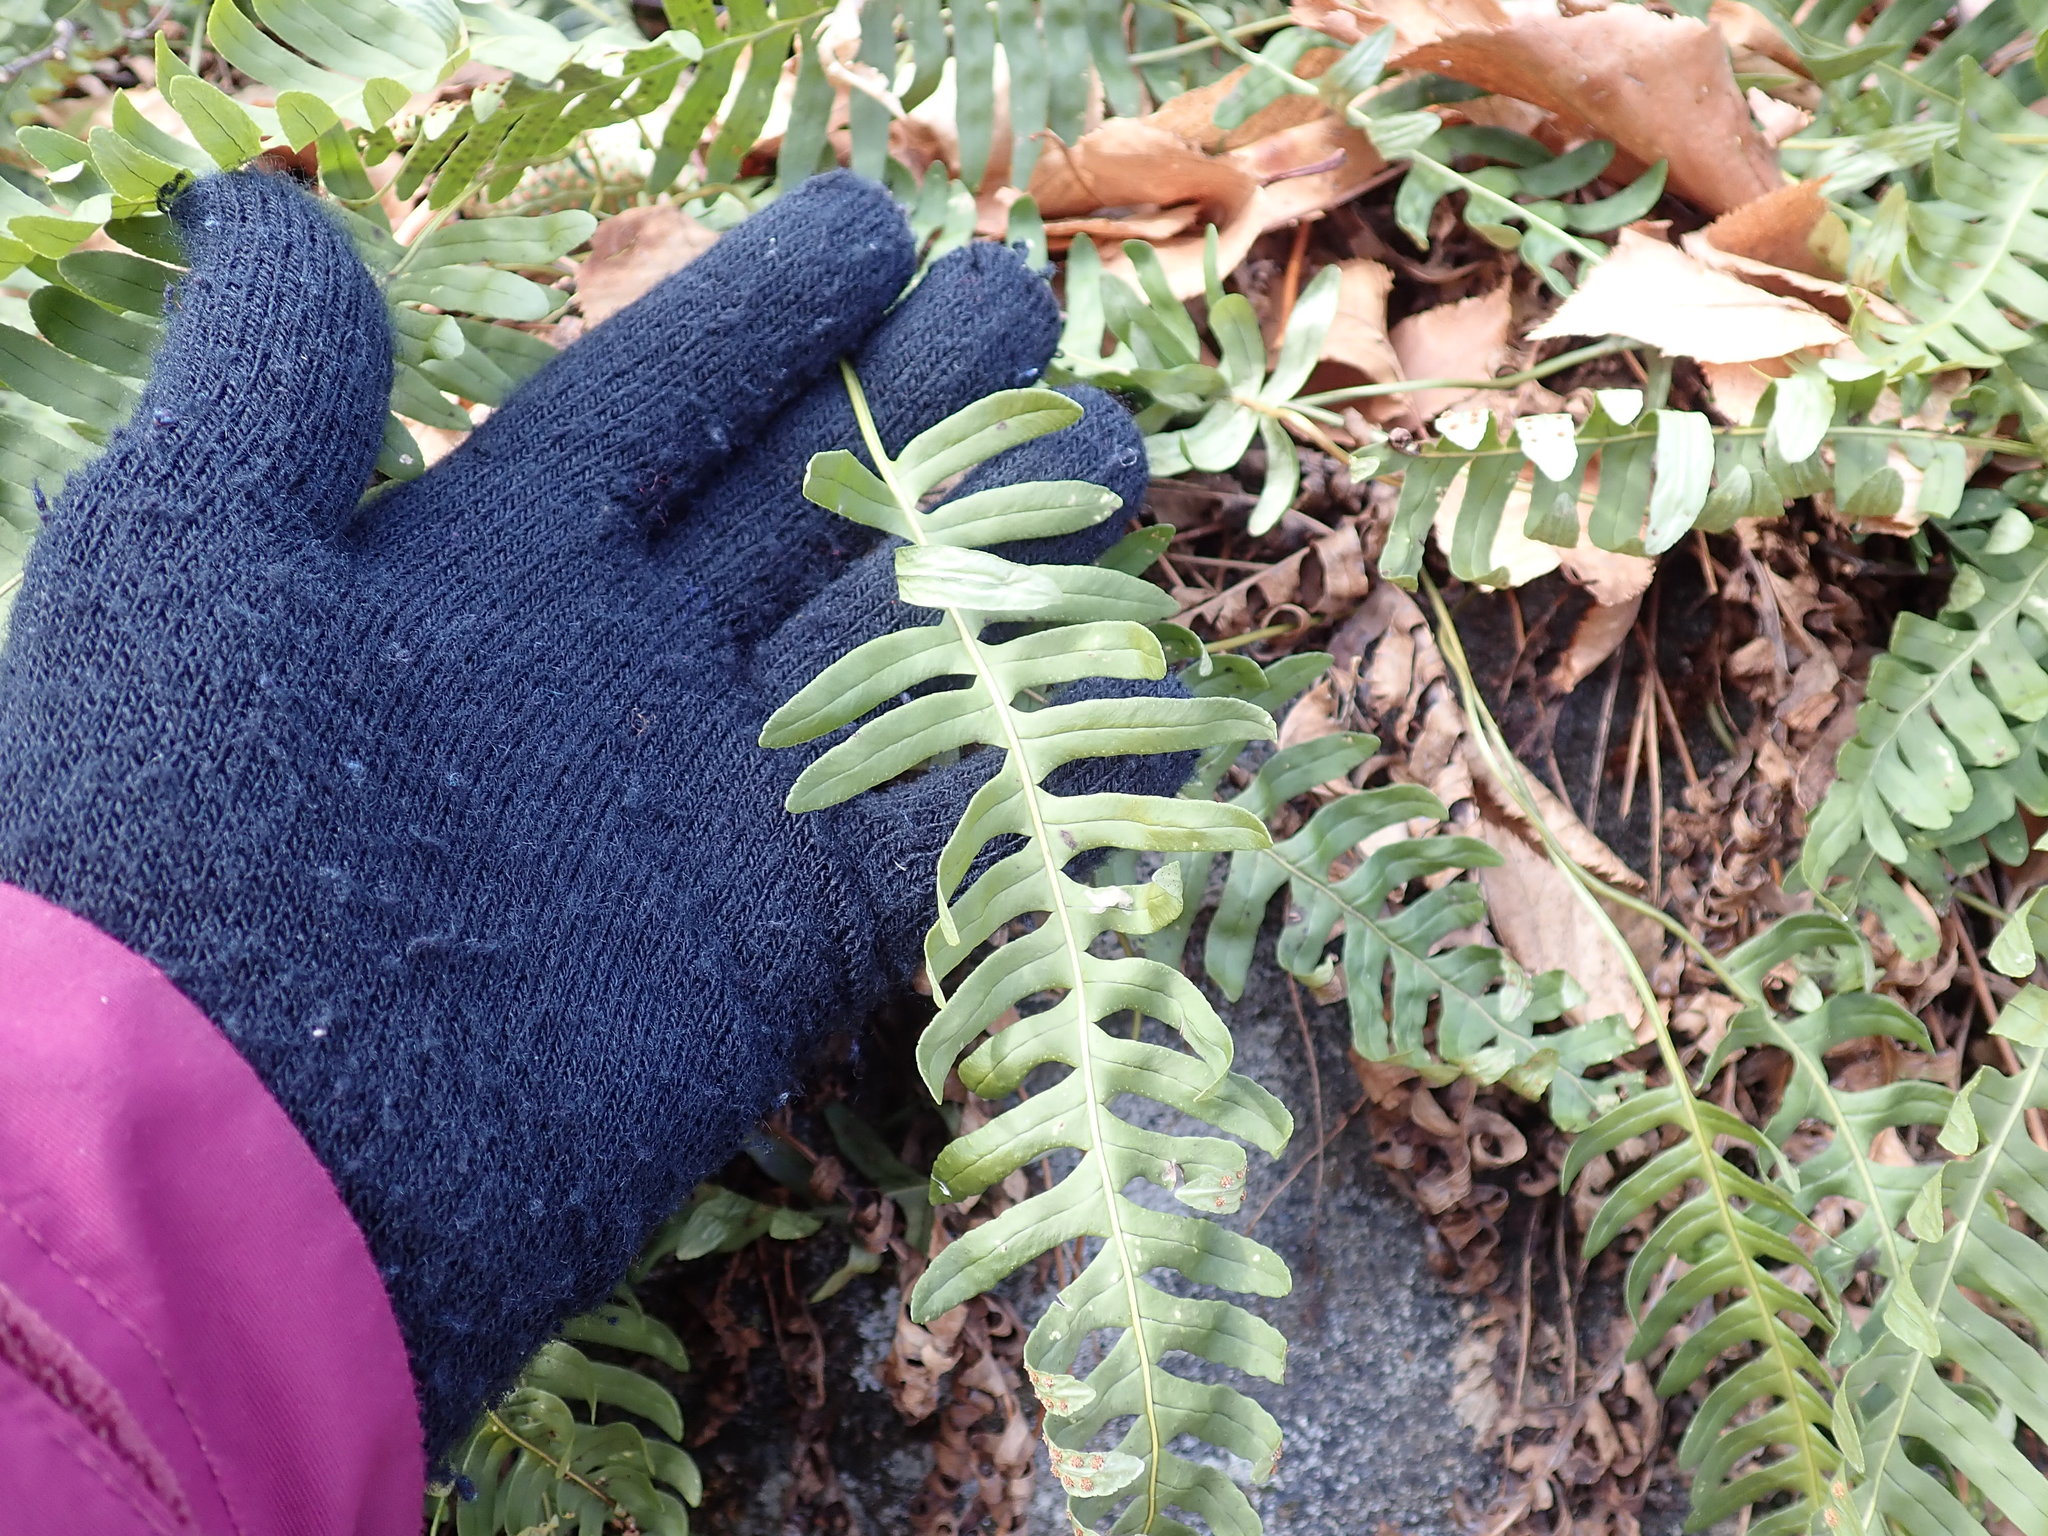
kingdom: Plantae
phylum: Tracheophyta
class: Polypodiopsida
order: Polypodiales
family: Polypodiaceae
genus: Polypodium
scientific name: Polypodium virginianum
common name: American wall fern
